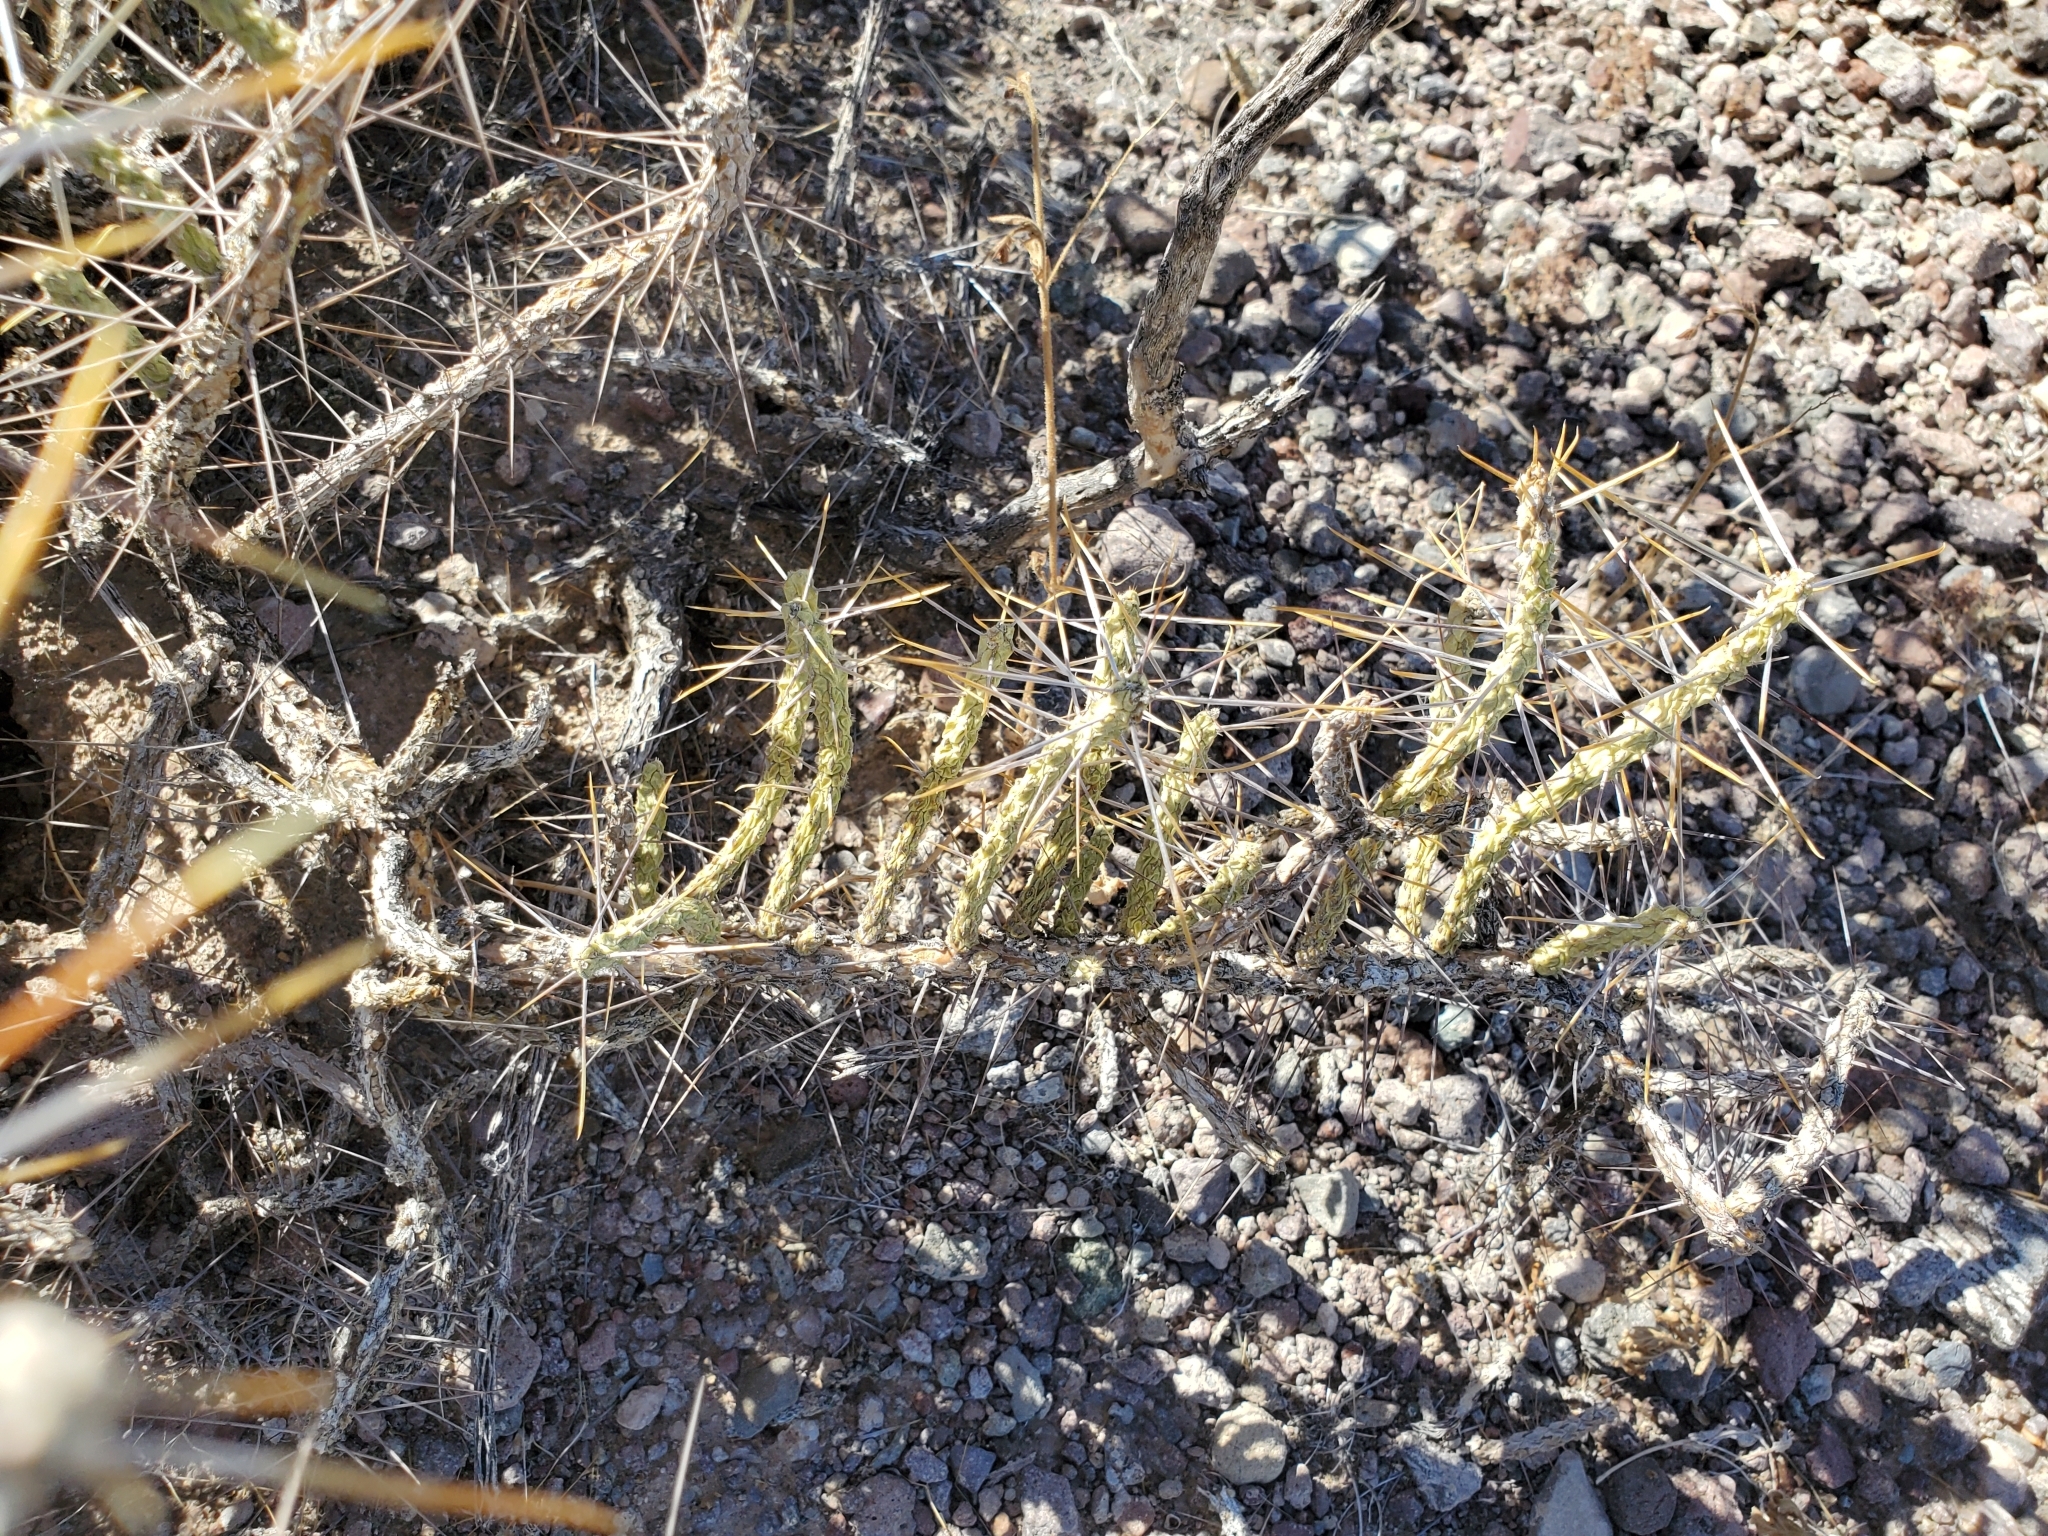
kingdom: Plantae
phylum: Tracheophyta
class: Magnoliopsida
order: Caryophyllales
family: Cactaceae
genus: Cylindropuntia
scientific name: Cylindropuntia ramosissima
